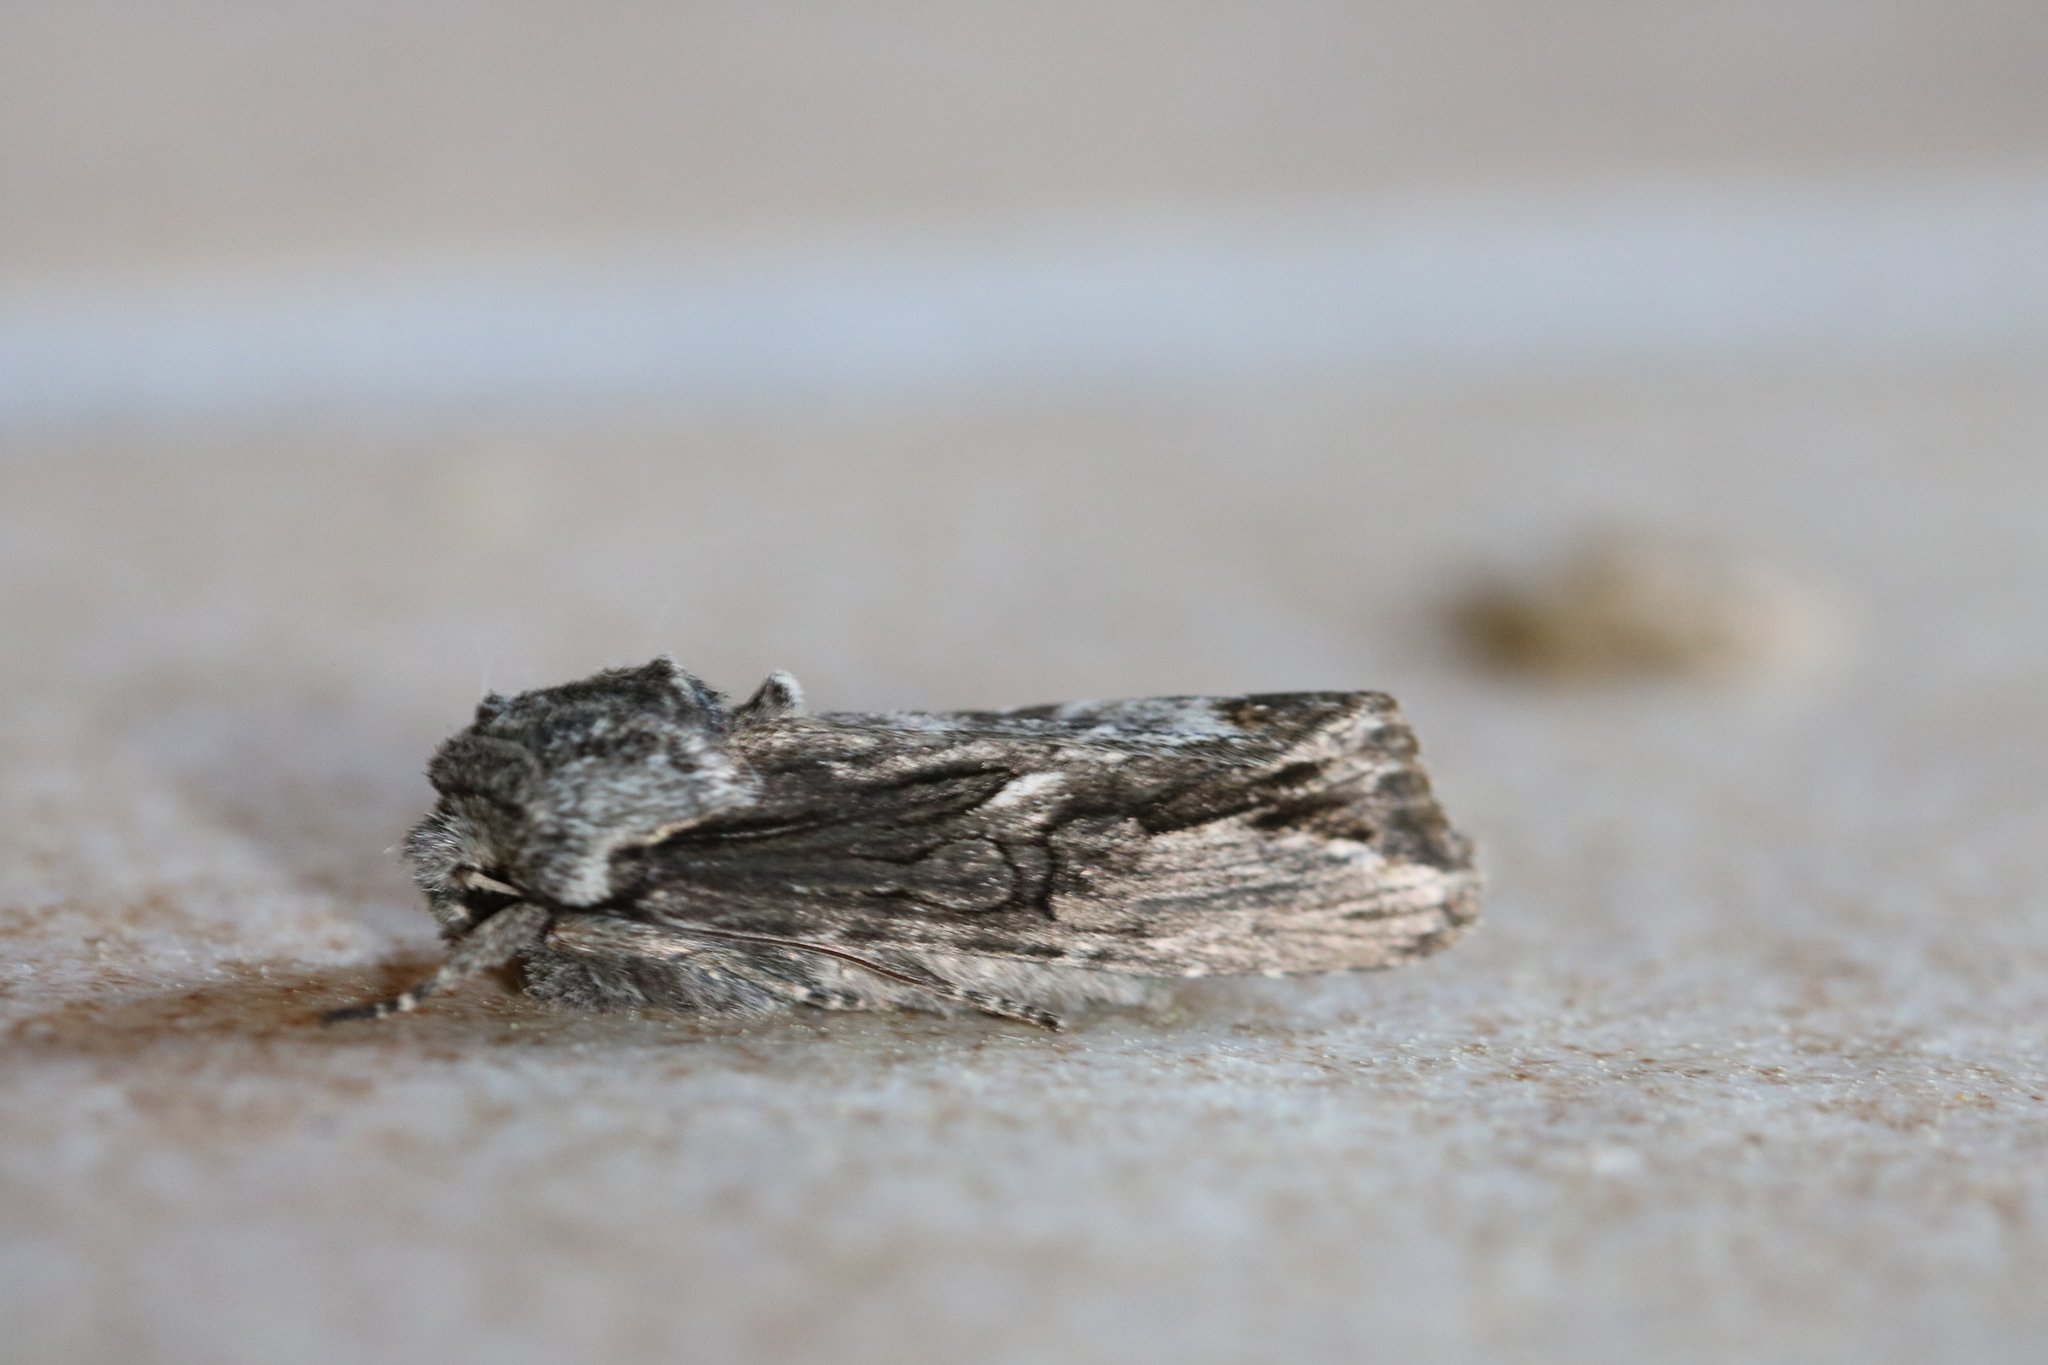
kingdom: Animalia
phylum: Arthropoda
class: Insecta
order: Lepidoptera
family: Noctuidae
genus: Egira
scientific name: Egira conspicillaris
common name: Silver cloud
